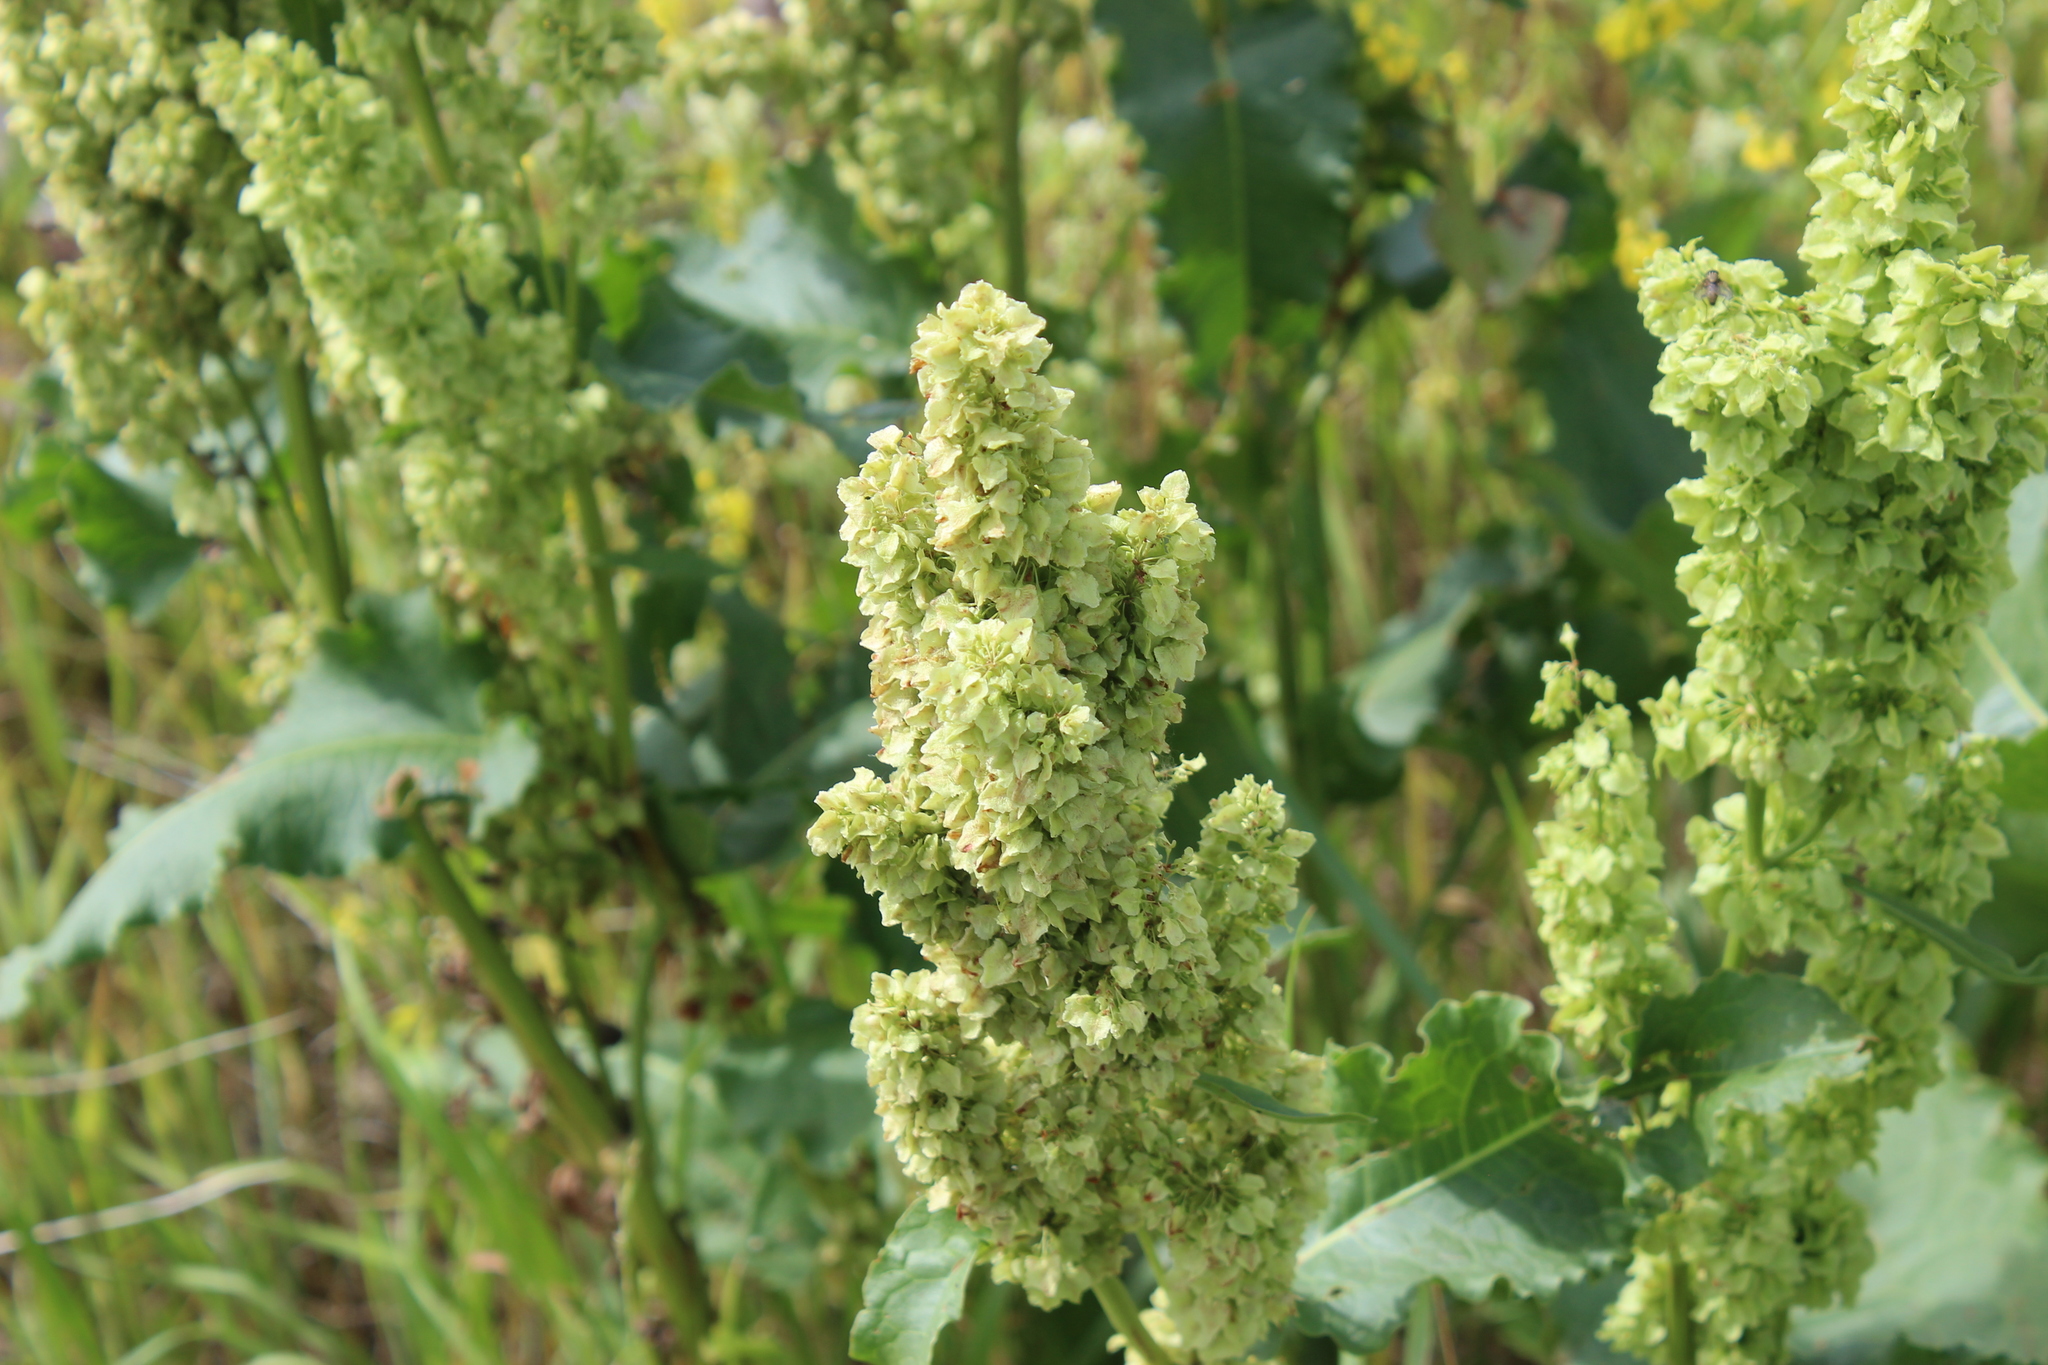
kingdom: Plantae
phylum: Tracheophyta
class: Magnoliopsida
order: Caryophyllales
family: Polygonaceae
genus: Rumex
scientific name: Rumex confertus
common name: Russian dock
